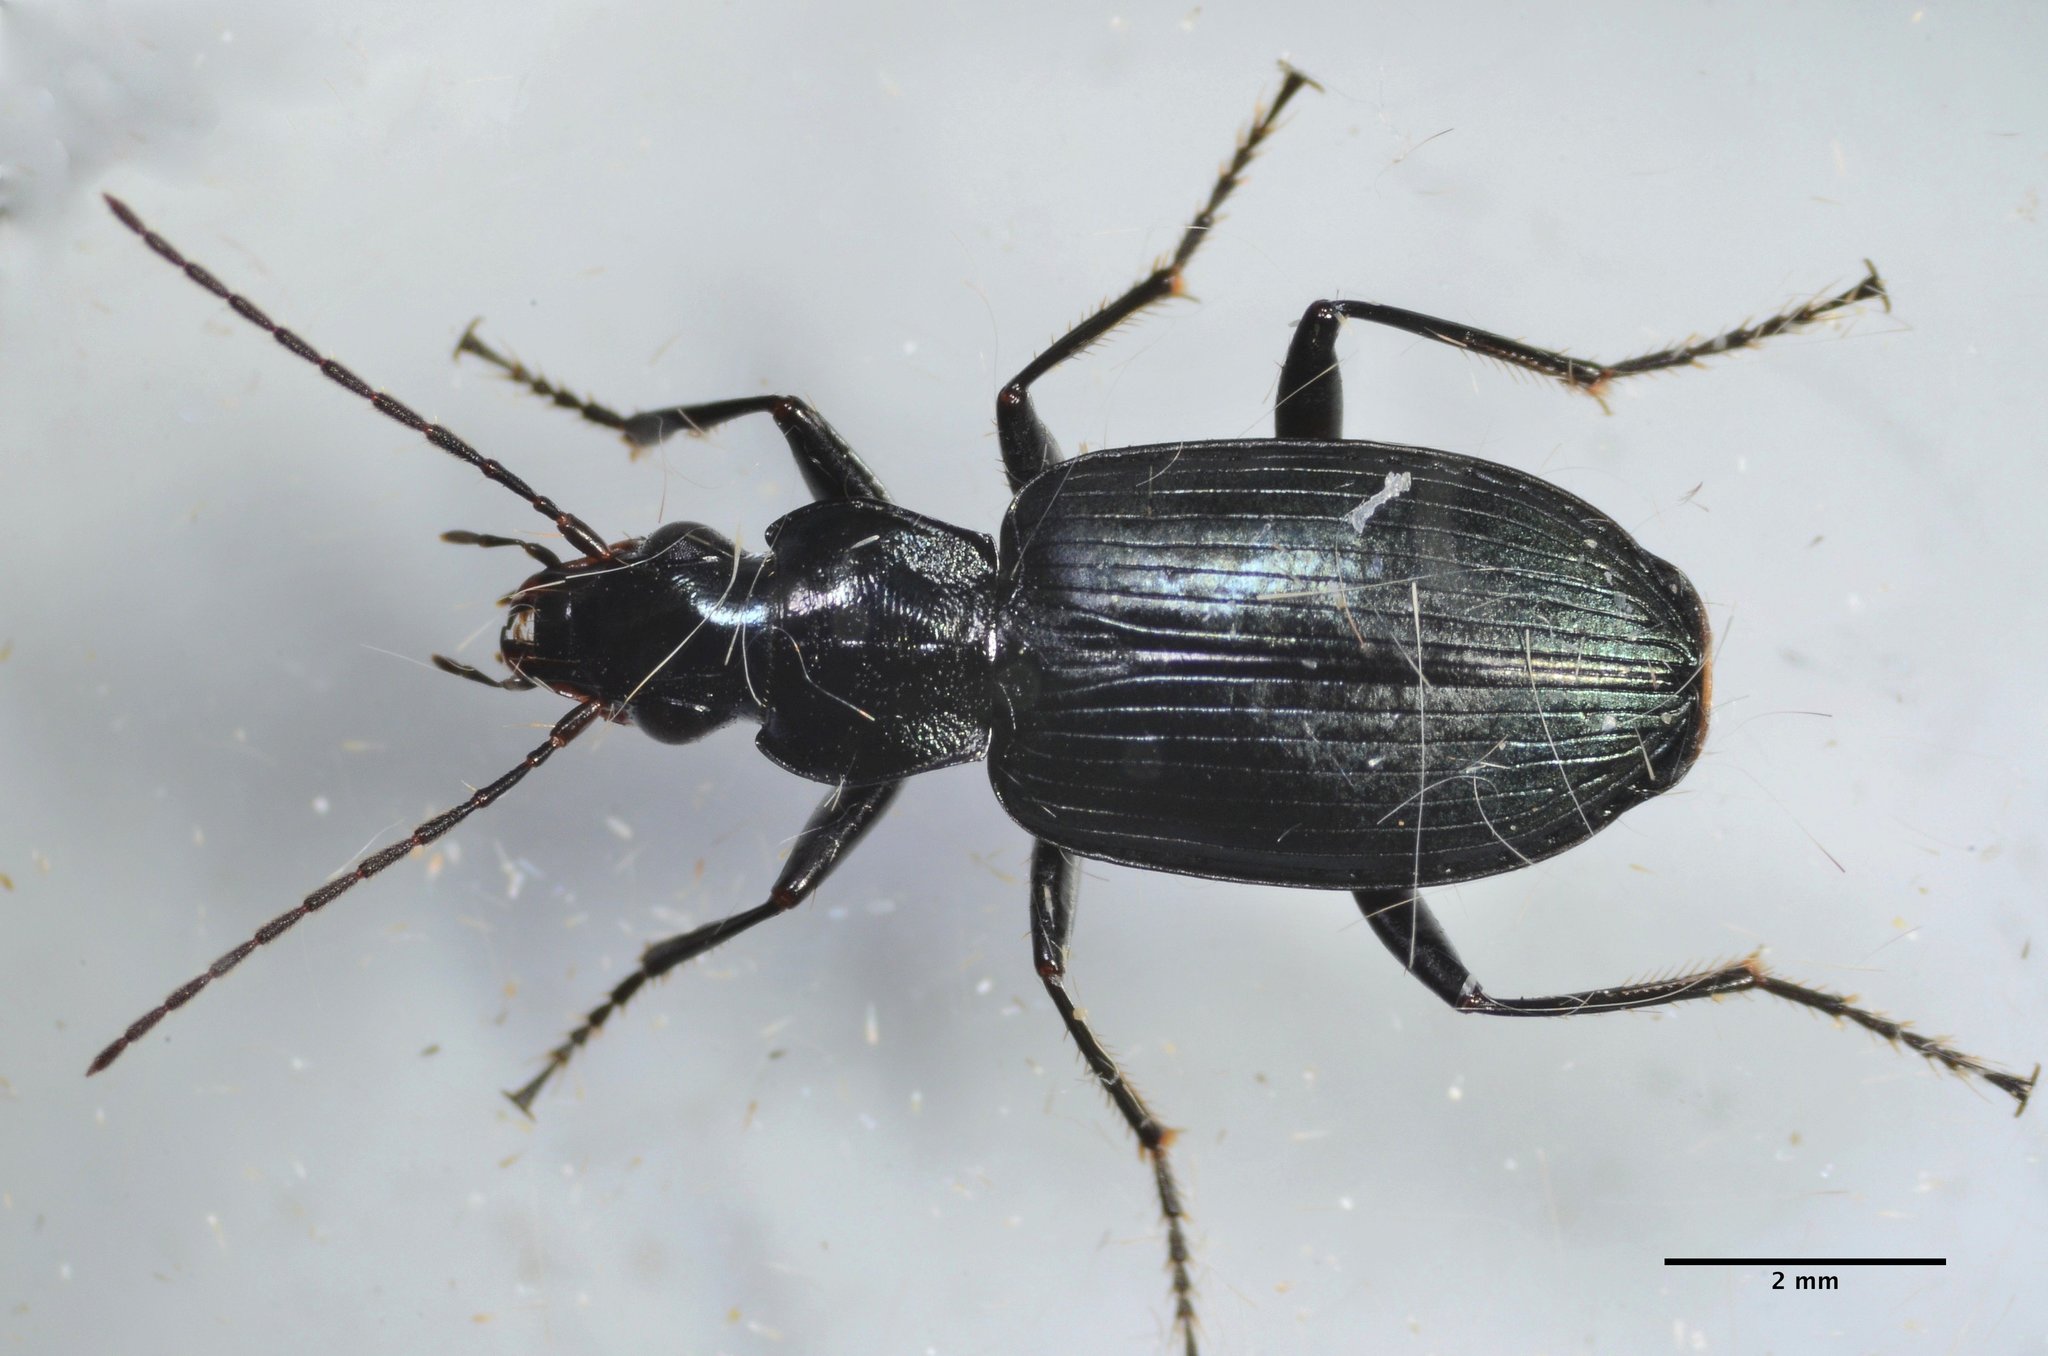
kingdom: Animalia
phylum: Arthropoda
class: Insecta
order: Coleoptera
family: Carabidae
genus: Anchomenus
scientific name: Anchomenus funebris
